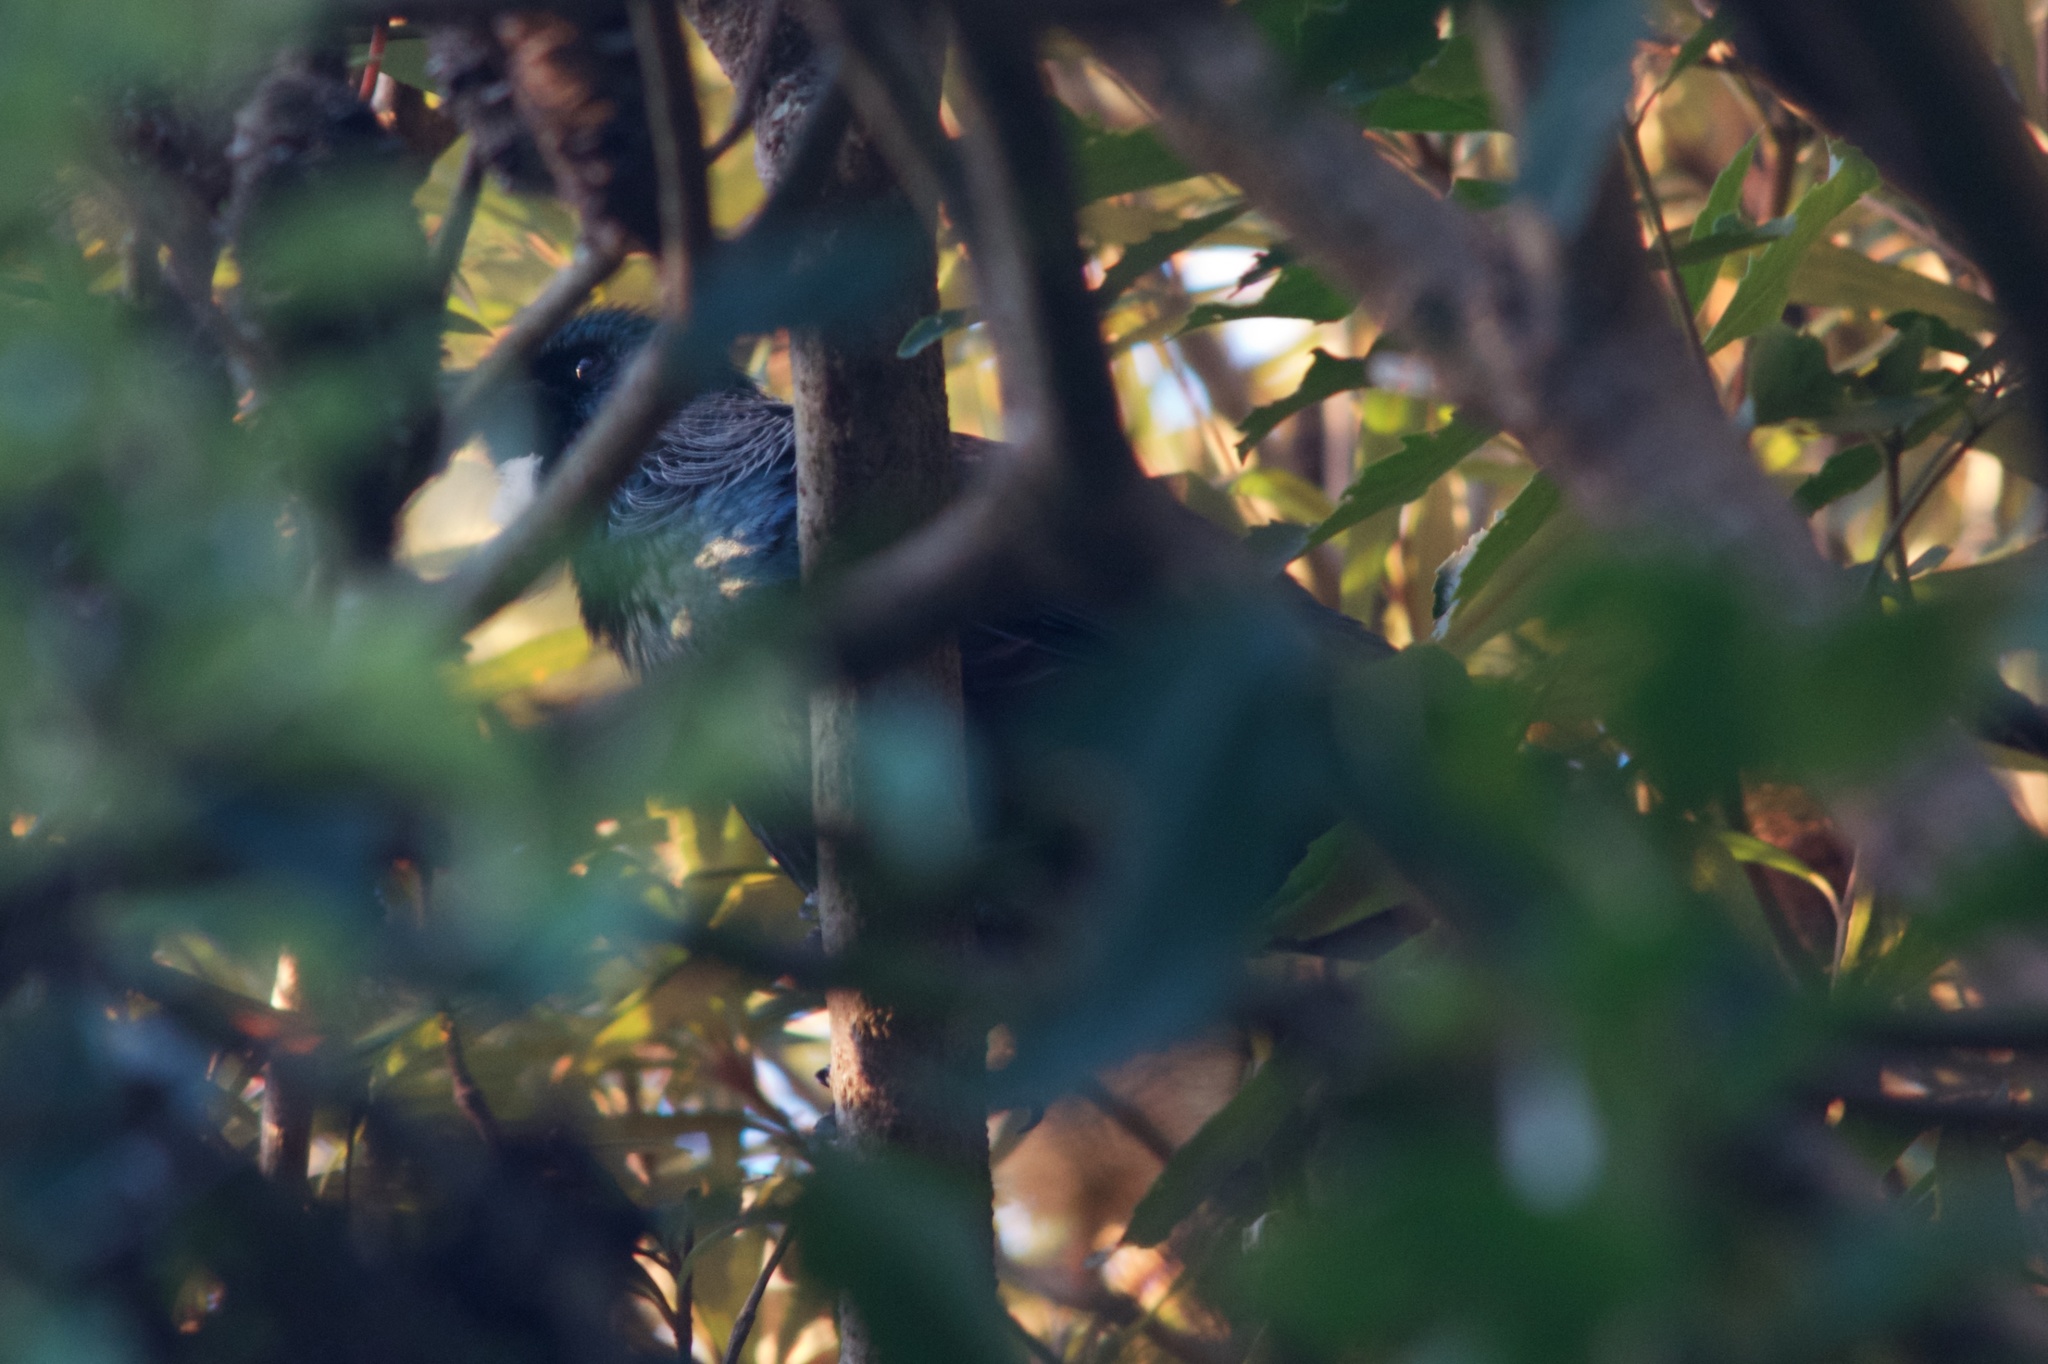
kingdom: Animalia
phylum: Chordata
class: Aves
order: Passeriformes
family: Meliphagidae
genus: Prosthemadera
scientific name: Prosthemadera novaeseelandiae
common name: Tui
